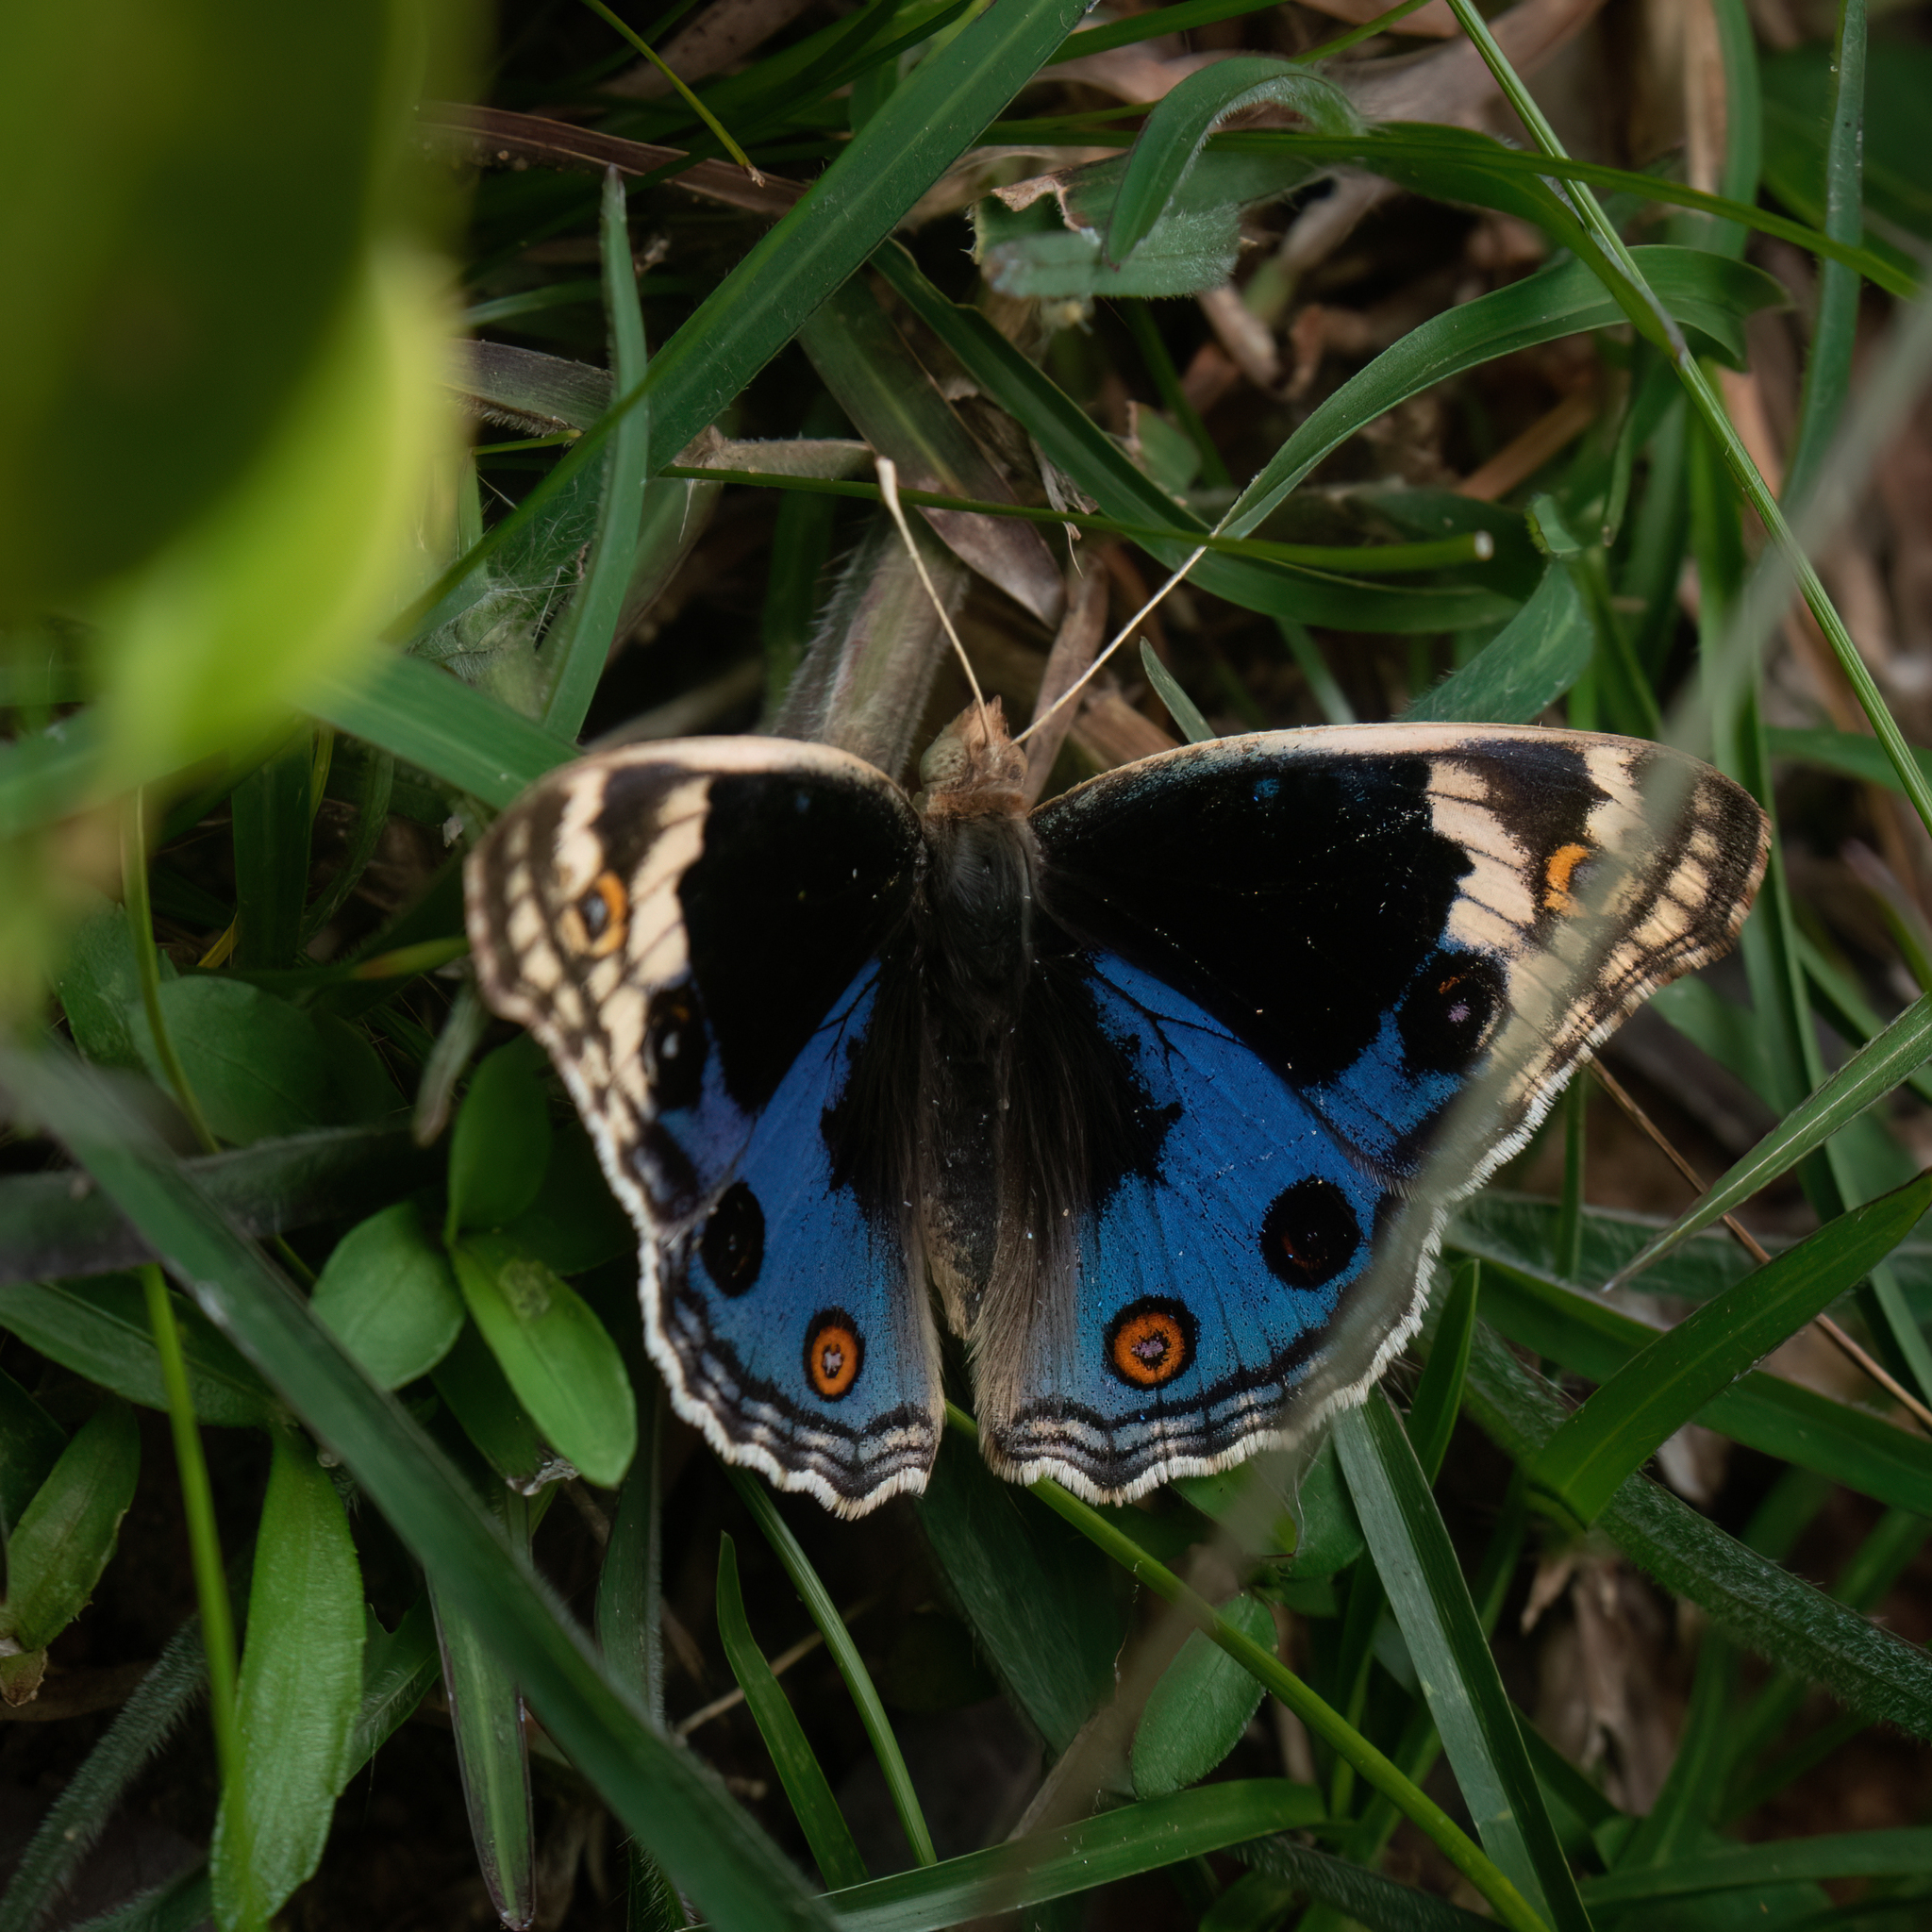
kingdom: Animalia
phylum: Arthropoda
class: Insecta
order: Lepidoptera
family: Nymphalidae
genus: Junonia
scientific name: Junonia orithya
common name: Blue pansy
